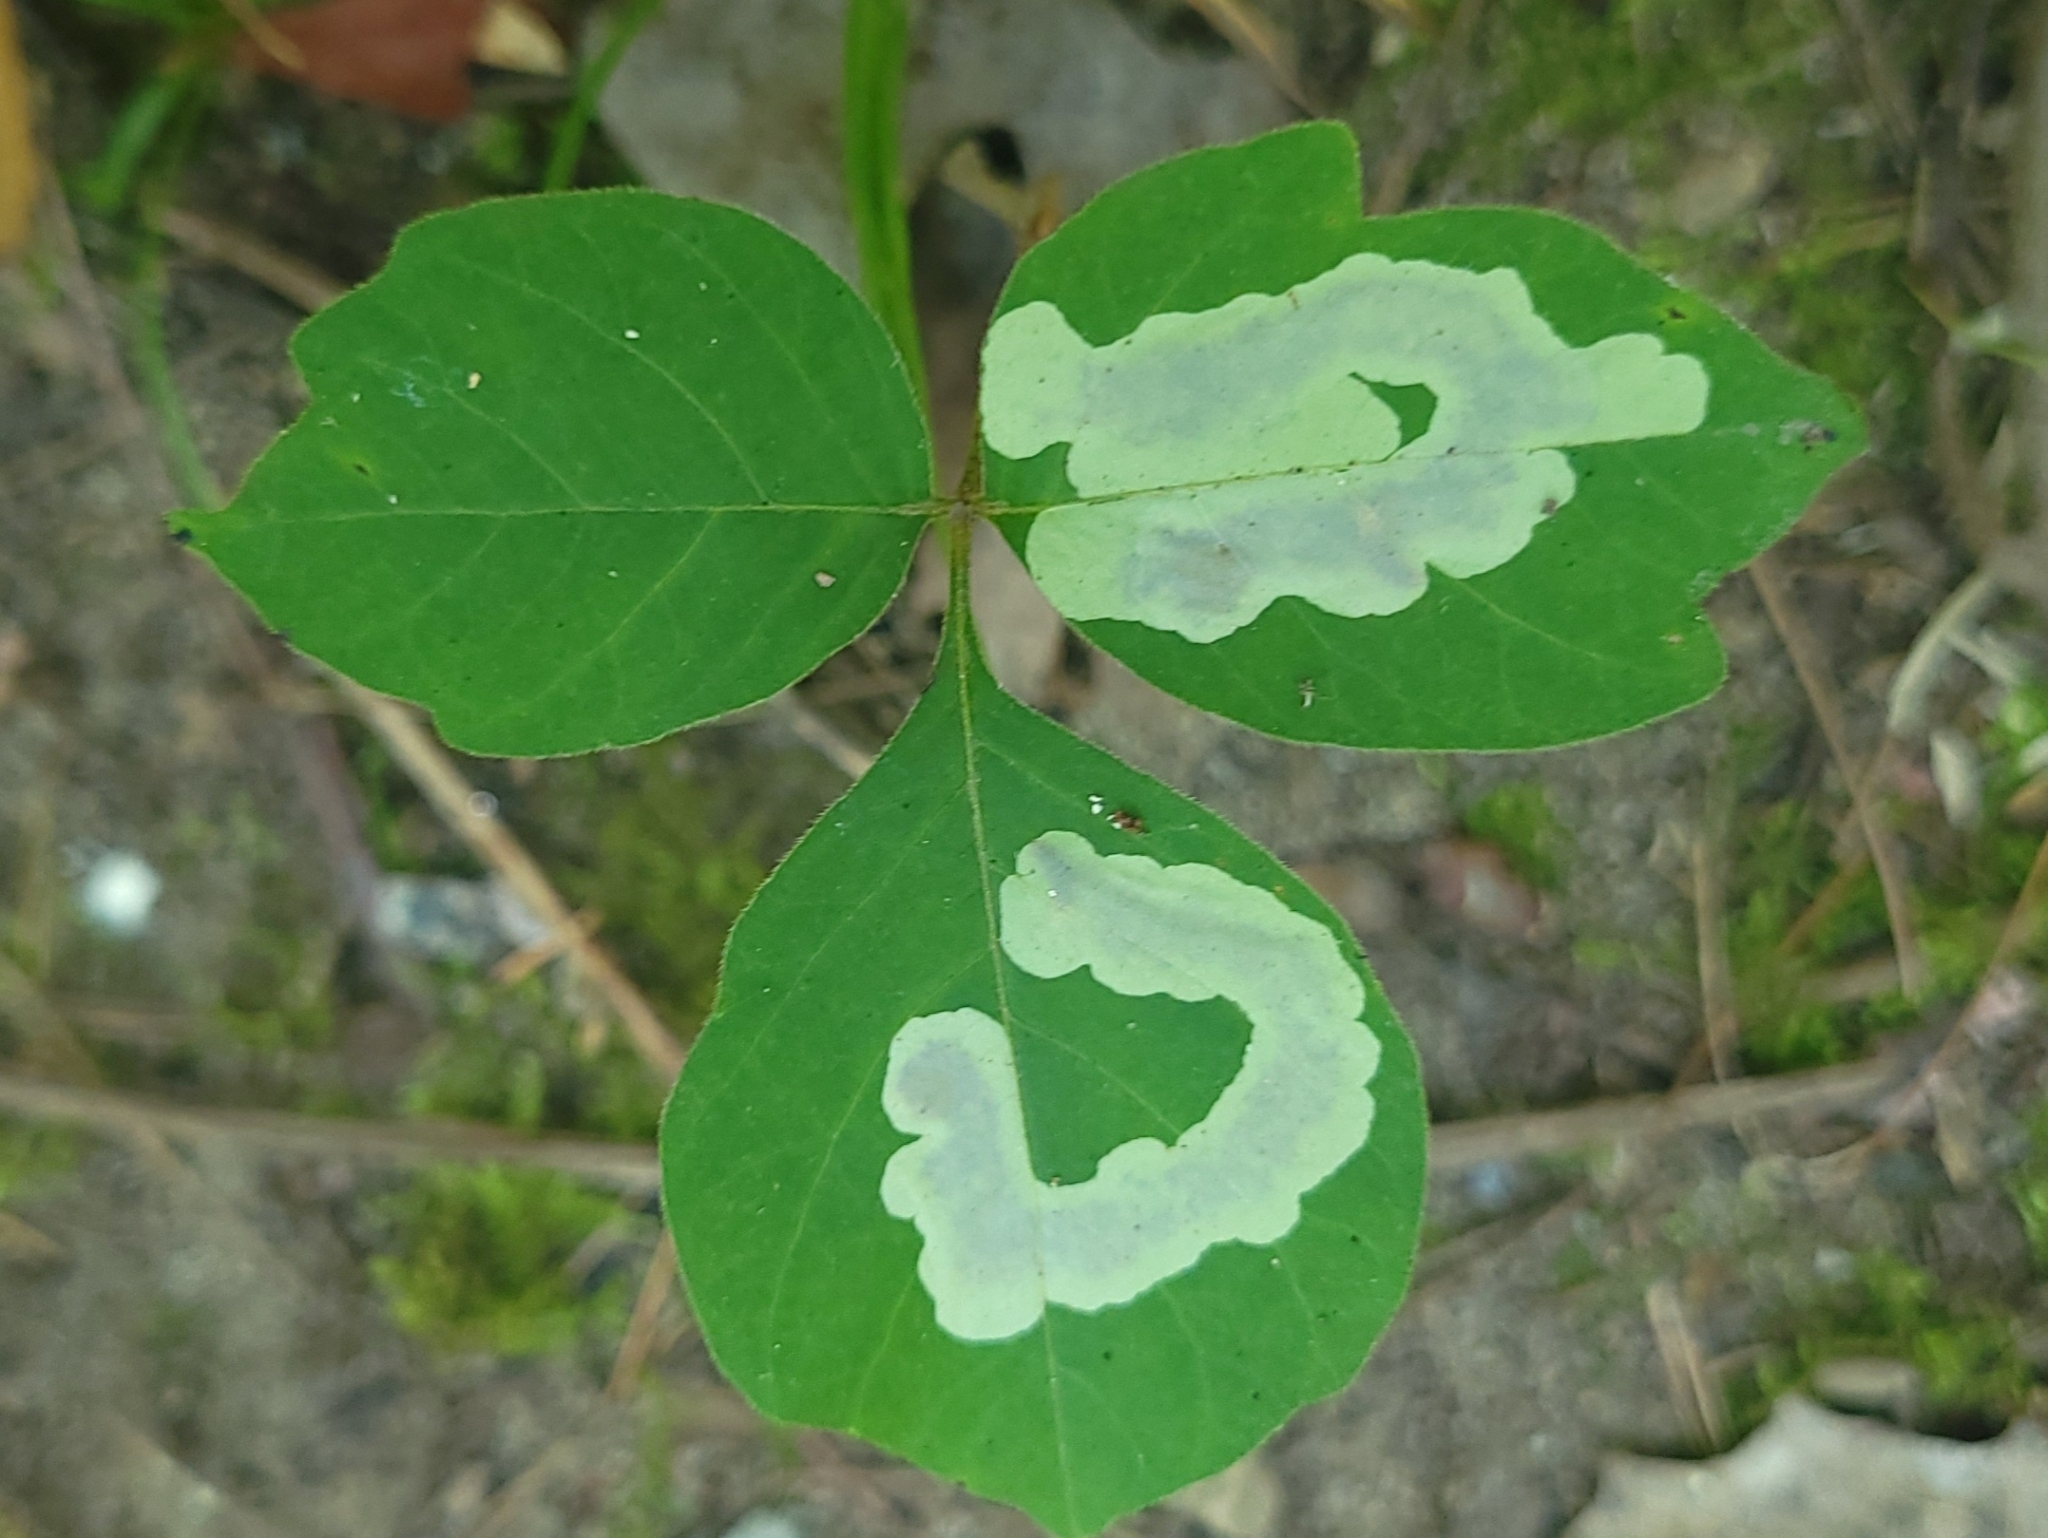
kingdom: Animalia
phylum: Arthropoda
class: Insecta
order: Lepidoptera
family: Gracillariidae
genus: Cameraria
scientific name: Cameraria guttifinitella
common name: Poison ivy leaf-miner moth
